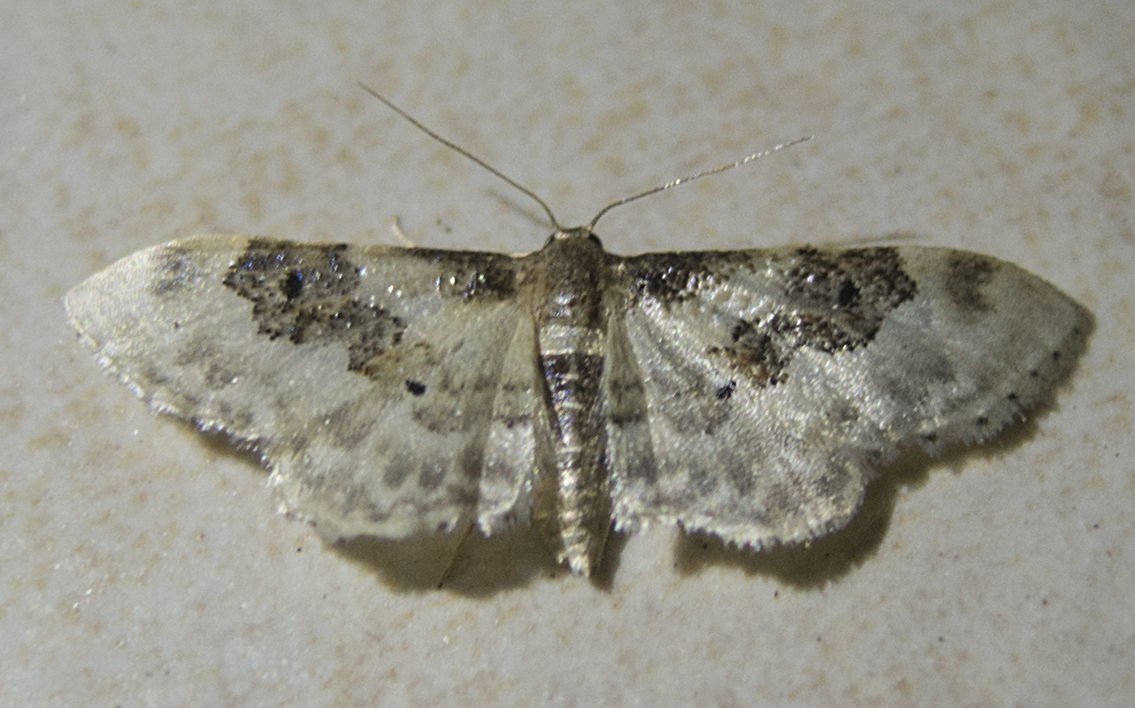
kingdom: Animalia
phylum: Arthropoda
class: Insecta
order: Lepidoptera
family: Geometridae
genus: Idaea
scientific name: Idaea rusticata
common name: Least carpet
